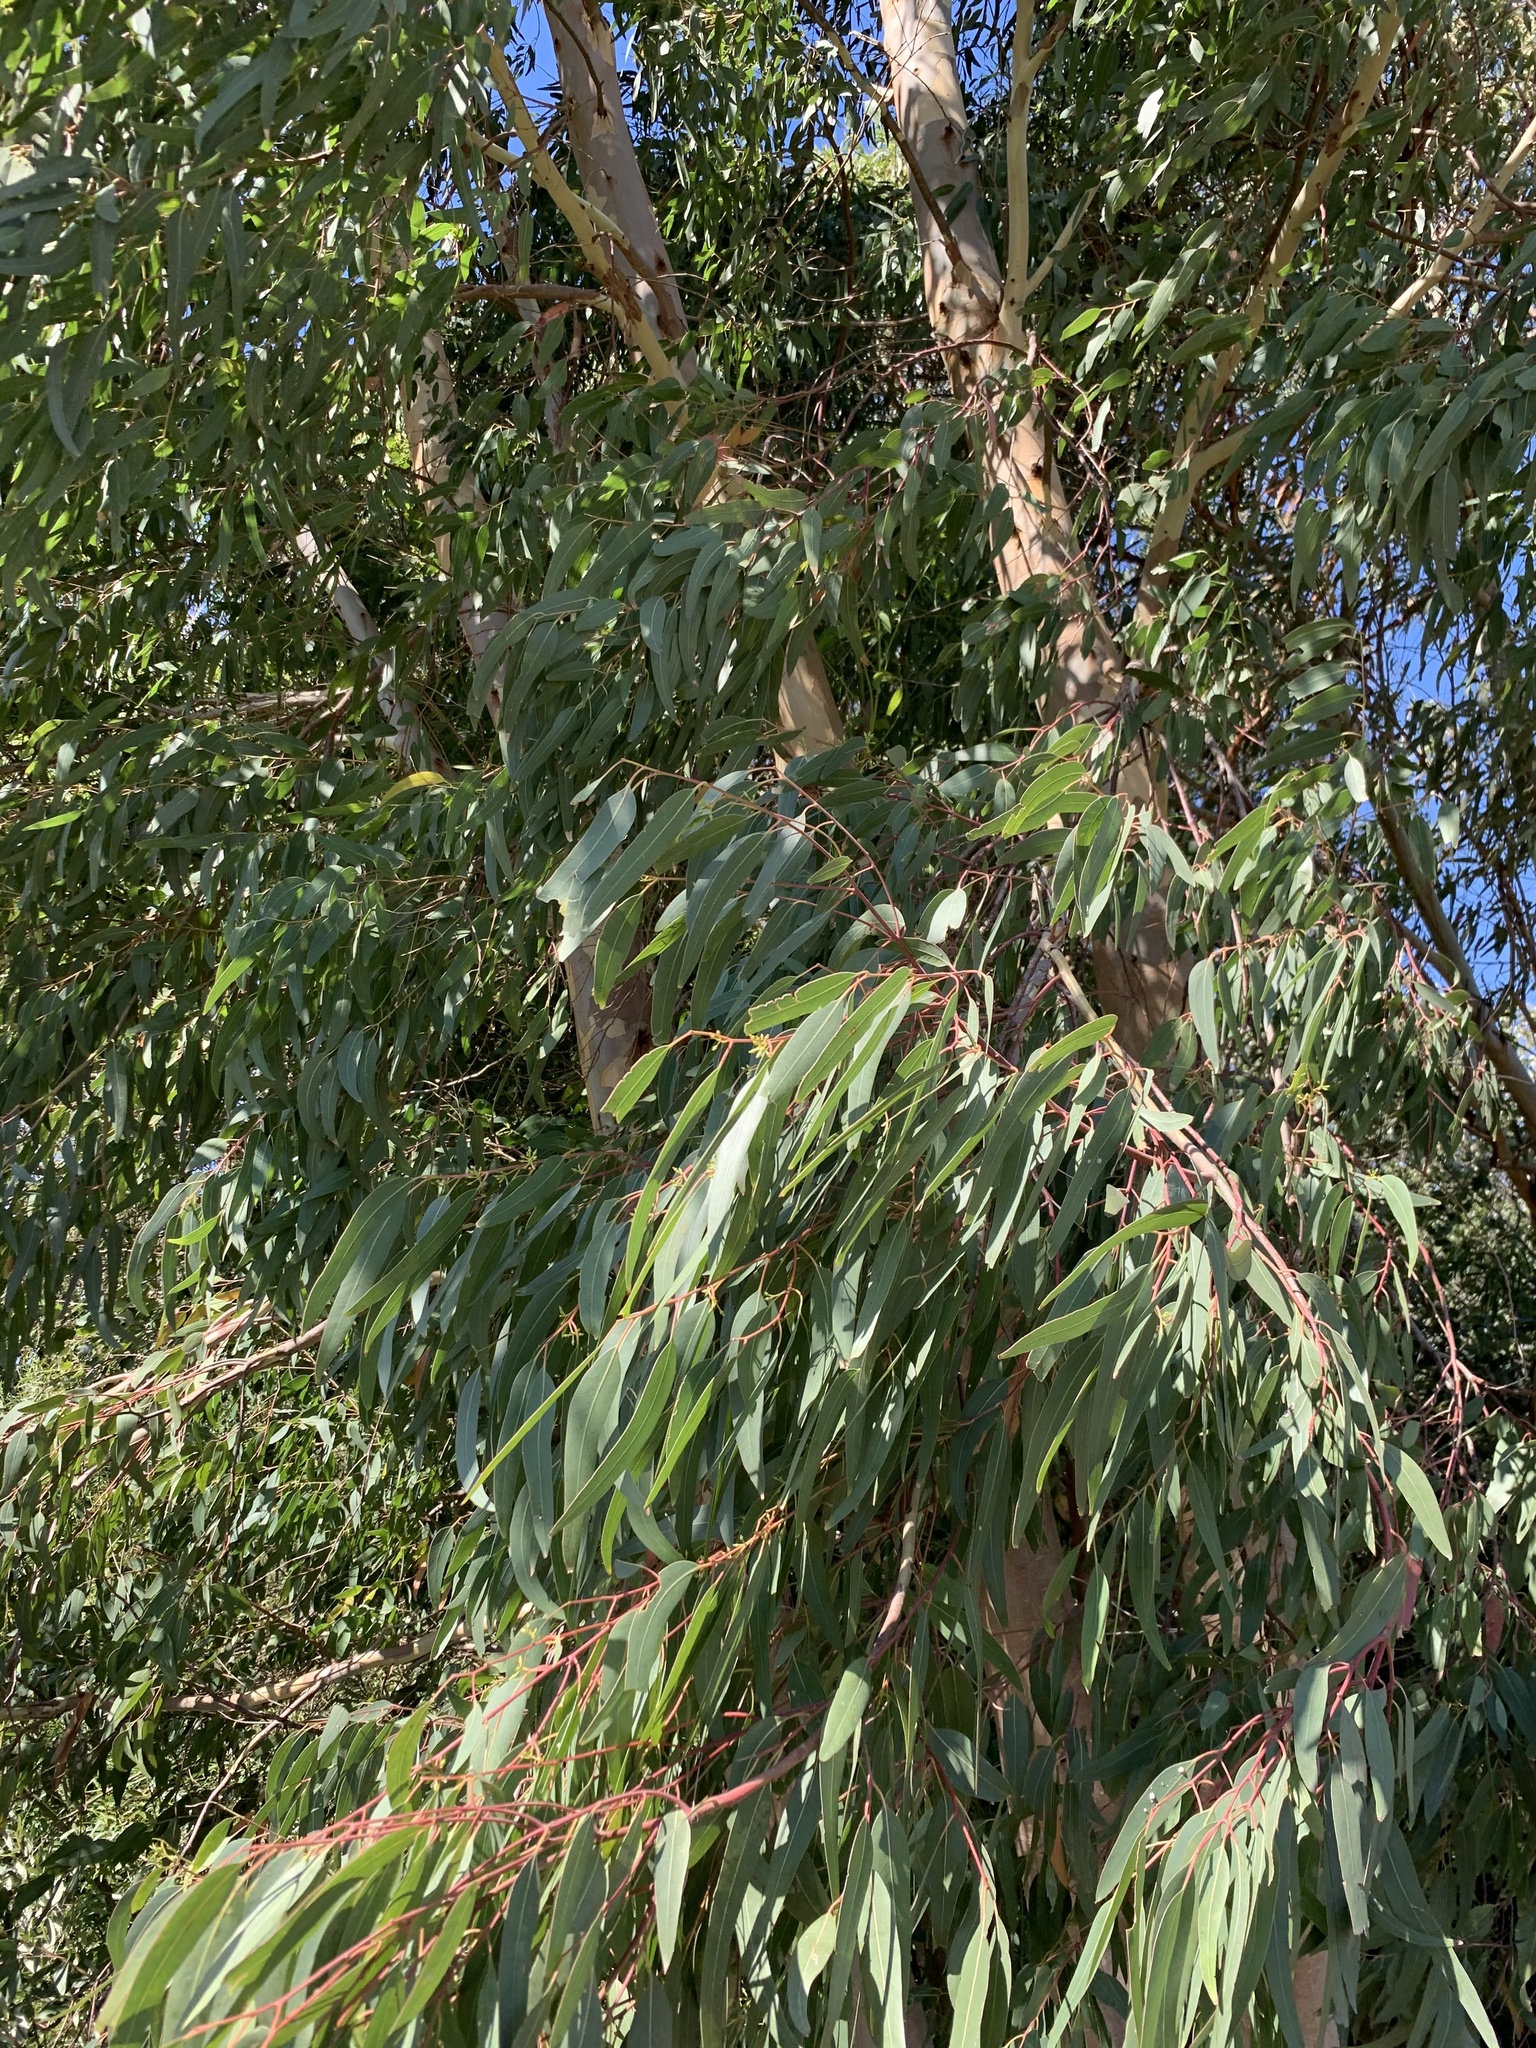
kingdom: Plantae
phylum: Tracheophyta
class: Magnoliopsida
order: Myrtales
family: Myrtaceae
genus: Eucalyptus
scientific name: Eucalyptus camaldulensis
